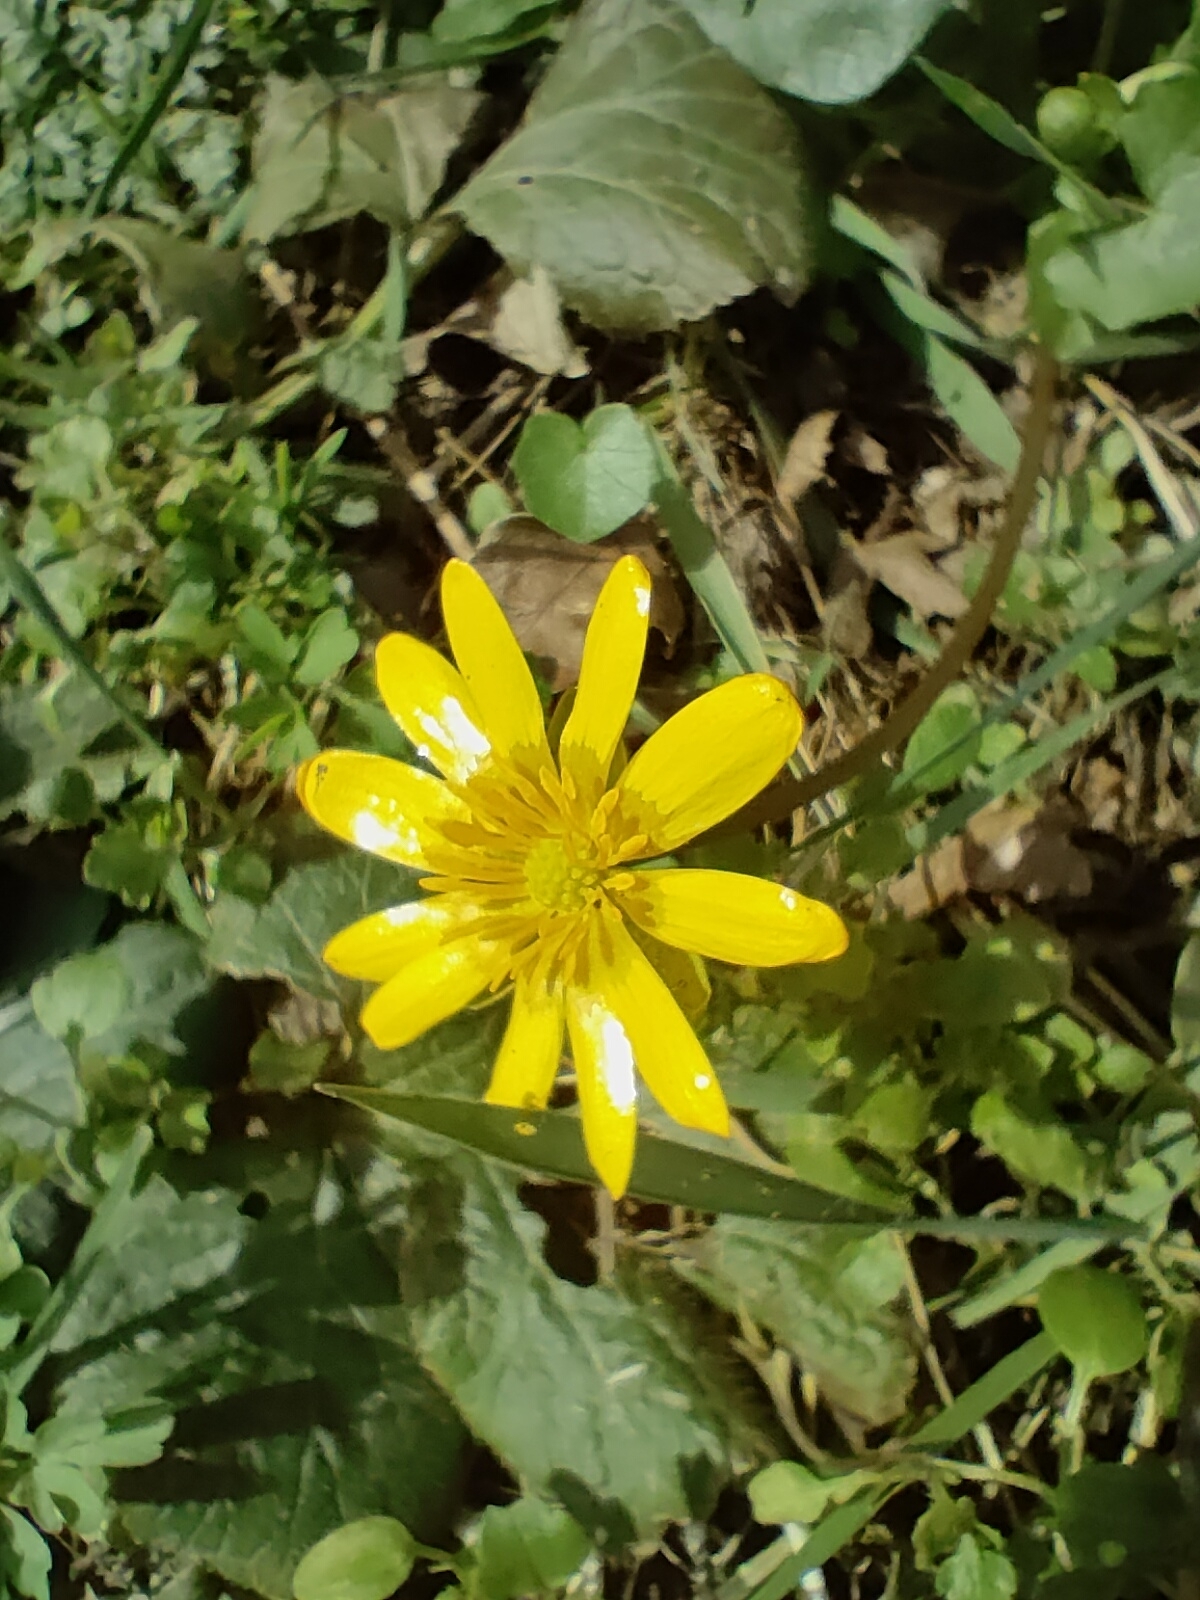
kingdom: Plantae
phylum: Tracheophyta
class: Magnoliopsida
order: Ranunculales
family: Ranunculaceae
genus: Ficaria
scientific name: Ficaria verna
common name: Lesser celandine
